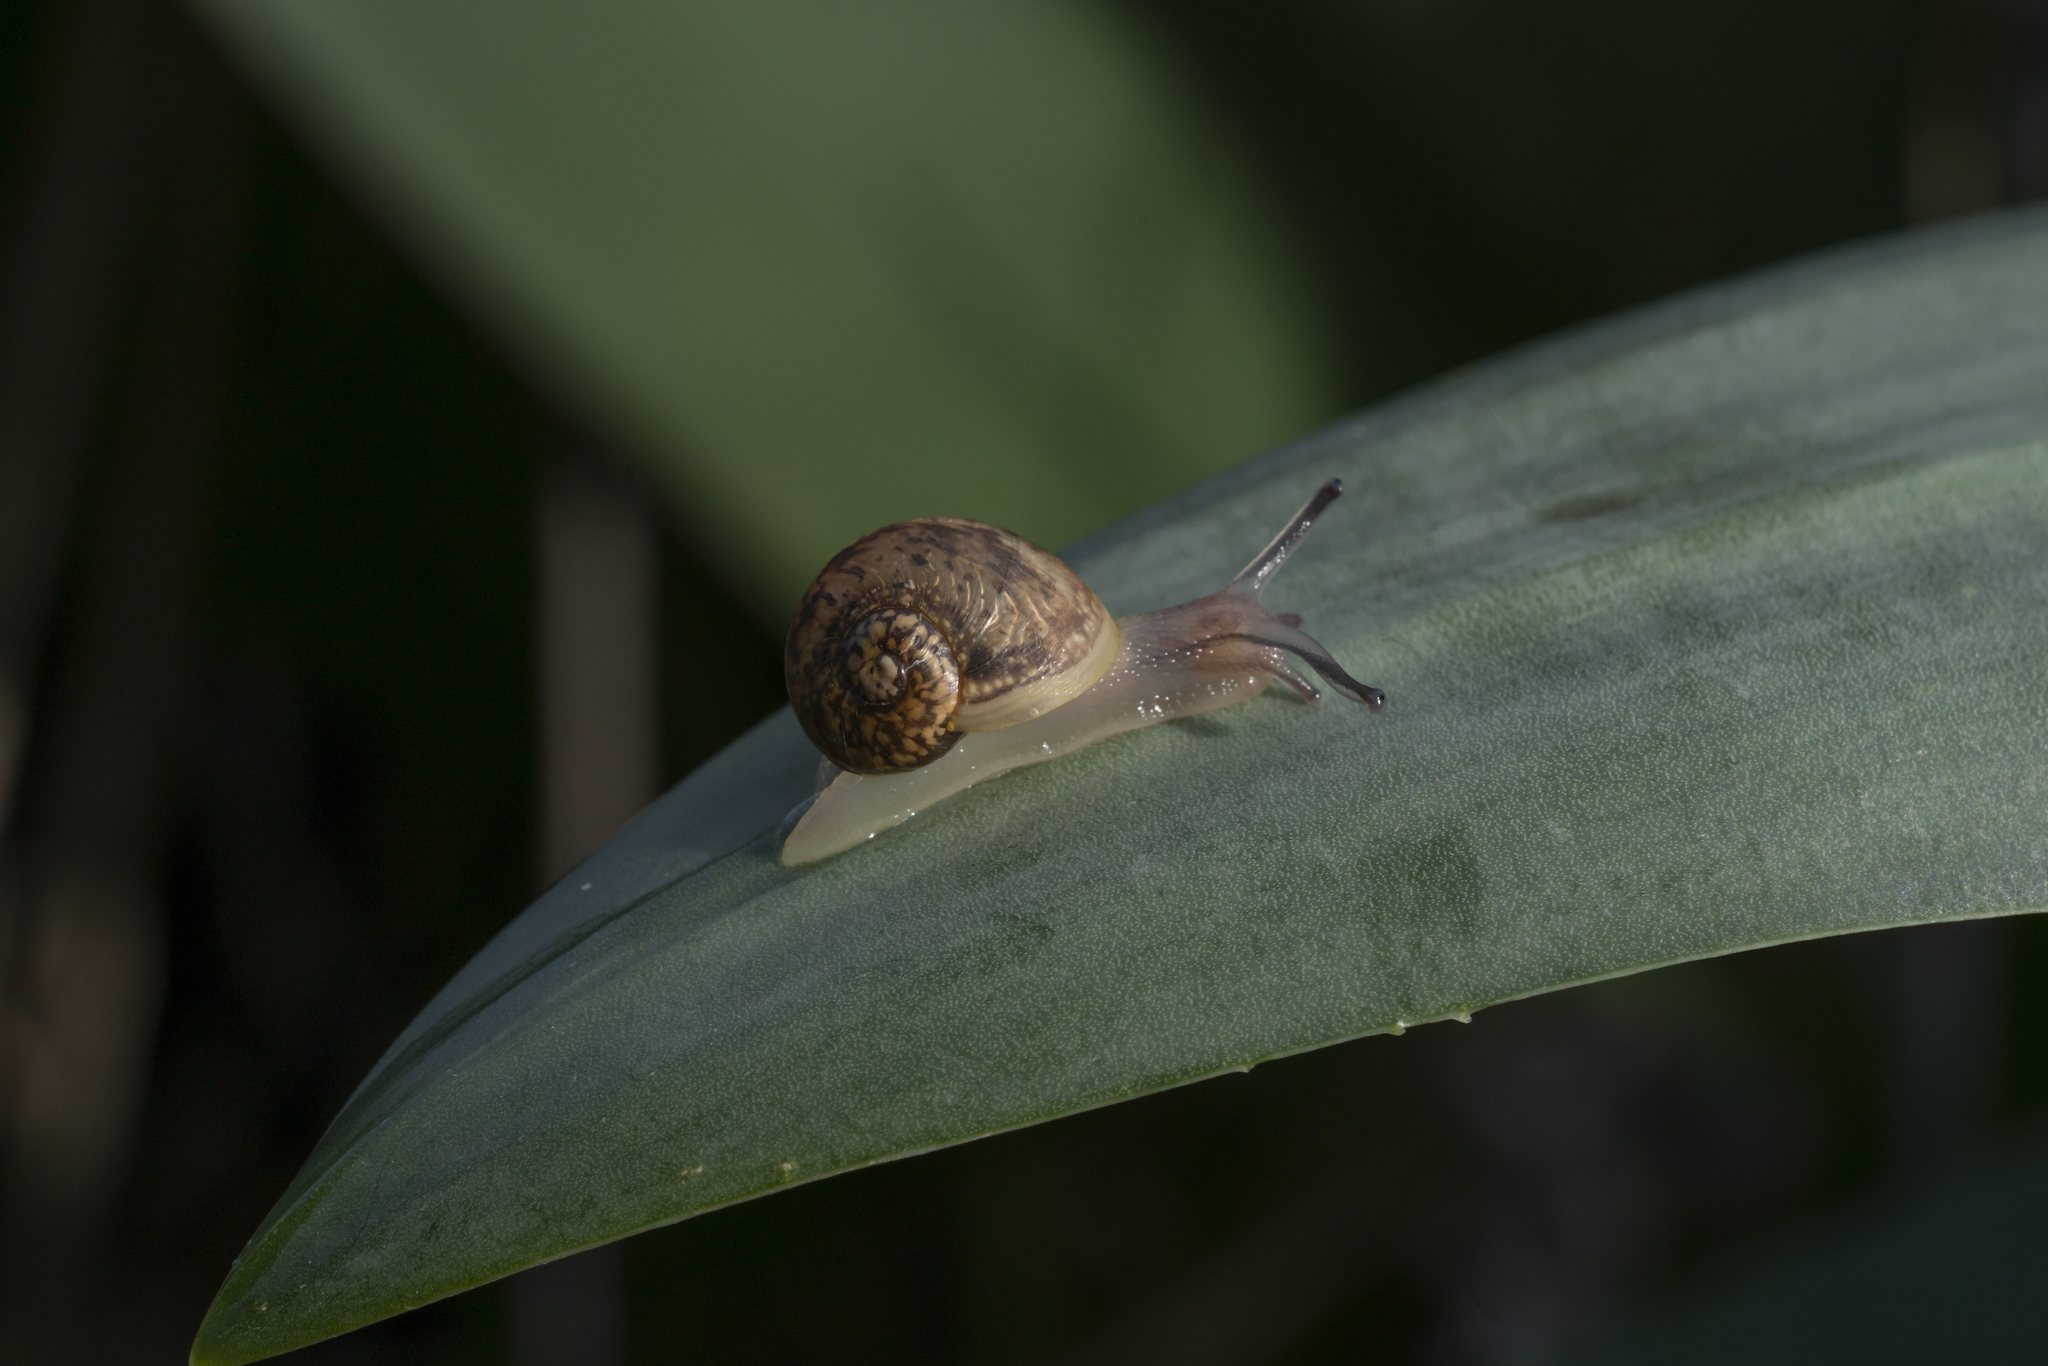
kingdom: Animalia
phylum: Mollusca
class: Gastropoda
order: Stylommatophora
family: Helicidae
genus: Cantareus
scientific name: Cantareus apertus
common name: Green gardensnail
